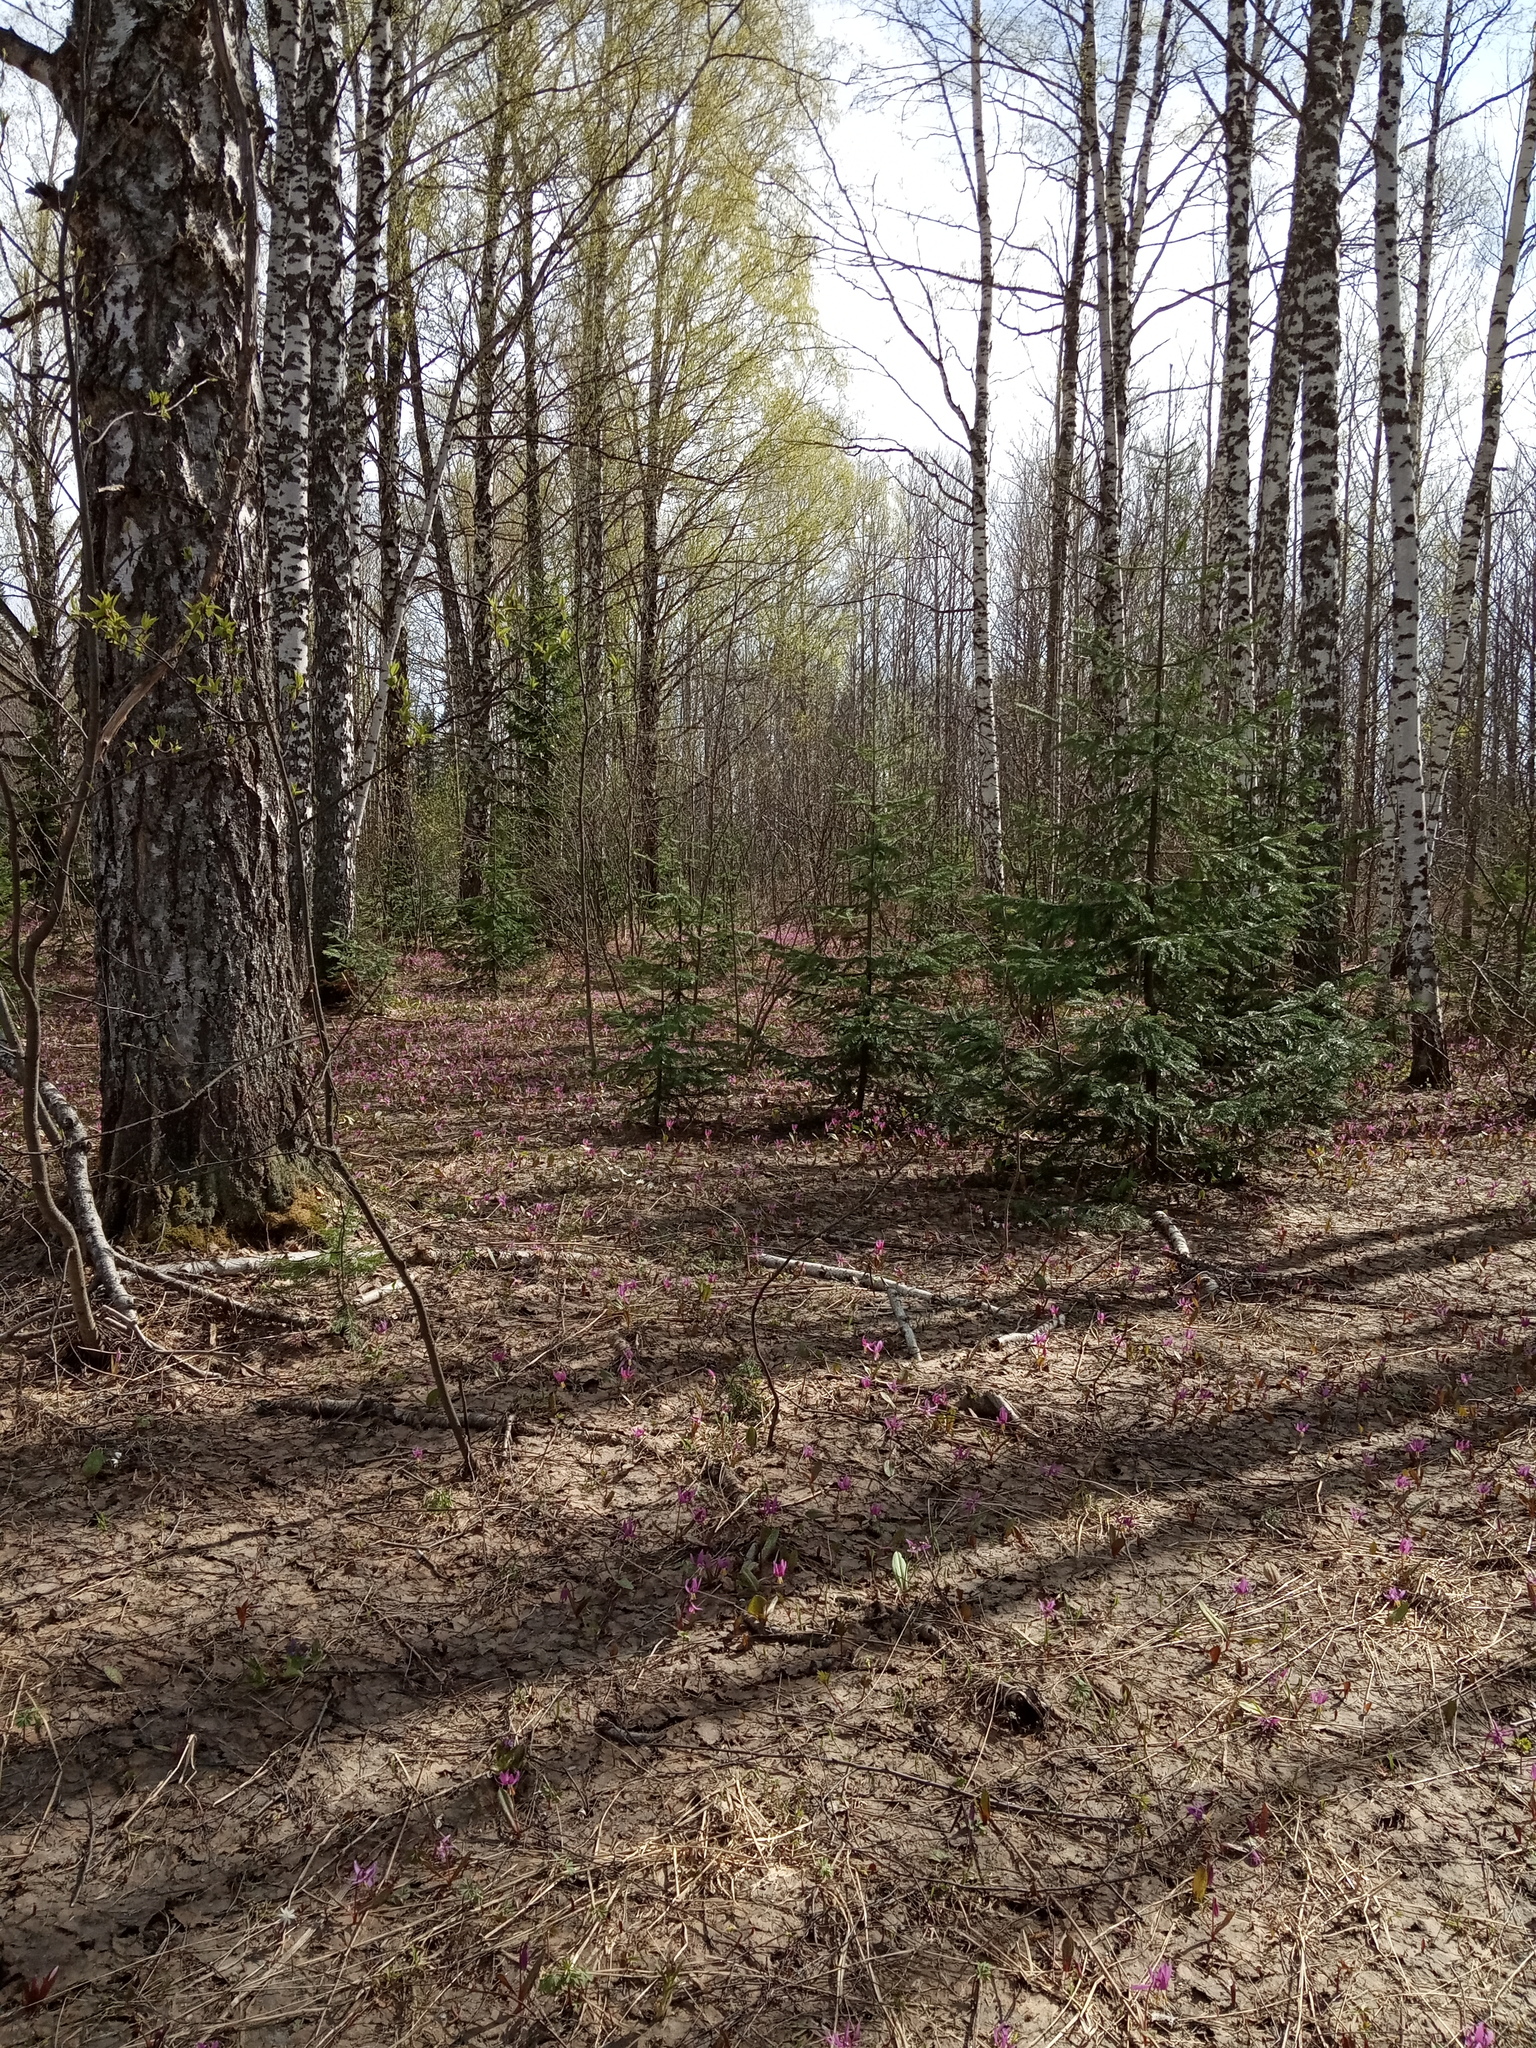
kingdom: Plantae
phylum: Tracheophyta
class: Magnoliopsida
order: Ranunculales
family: Ranunculaceae
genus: Anemone
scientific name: Anemone altaica
